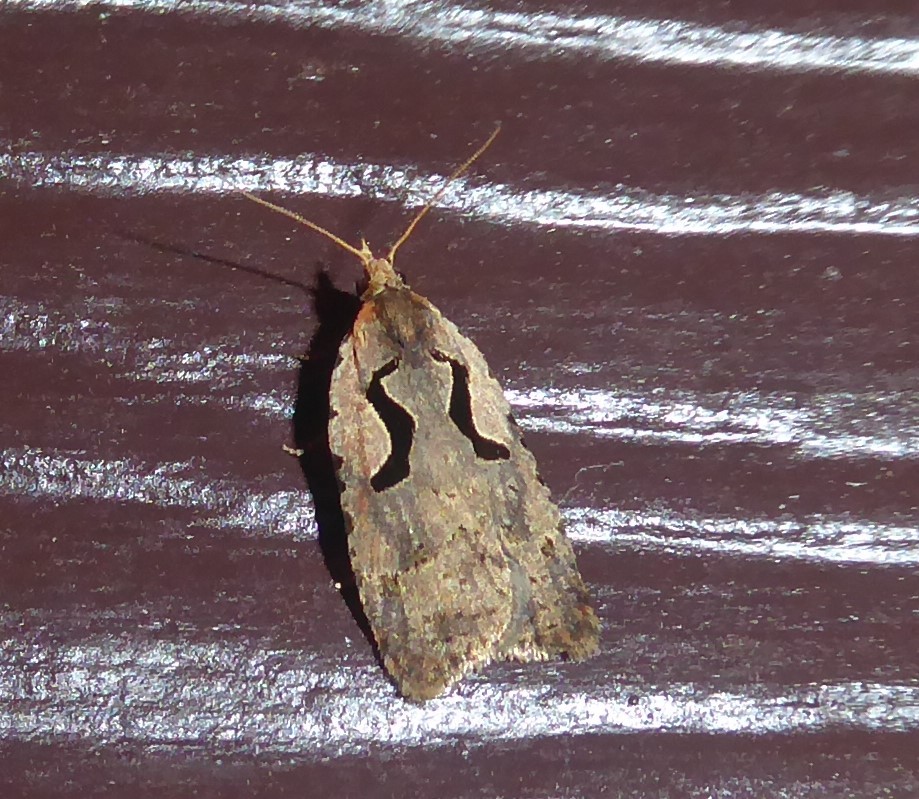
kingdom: Animalia
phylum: Arthropoda
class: Insecta
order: Lepidoptera
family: Tortricidae
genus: Cnephasia
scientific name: Cnephasia jactatana
